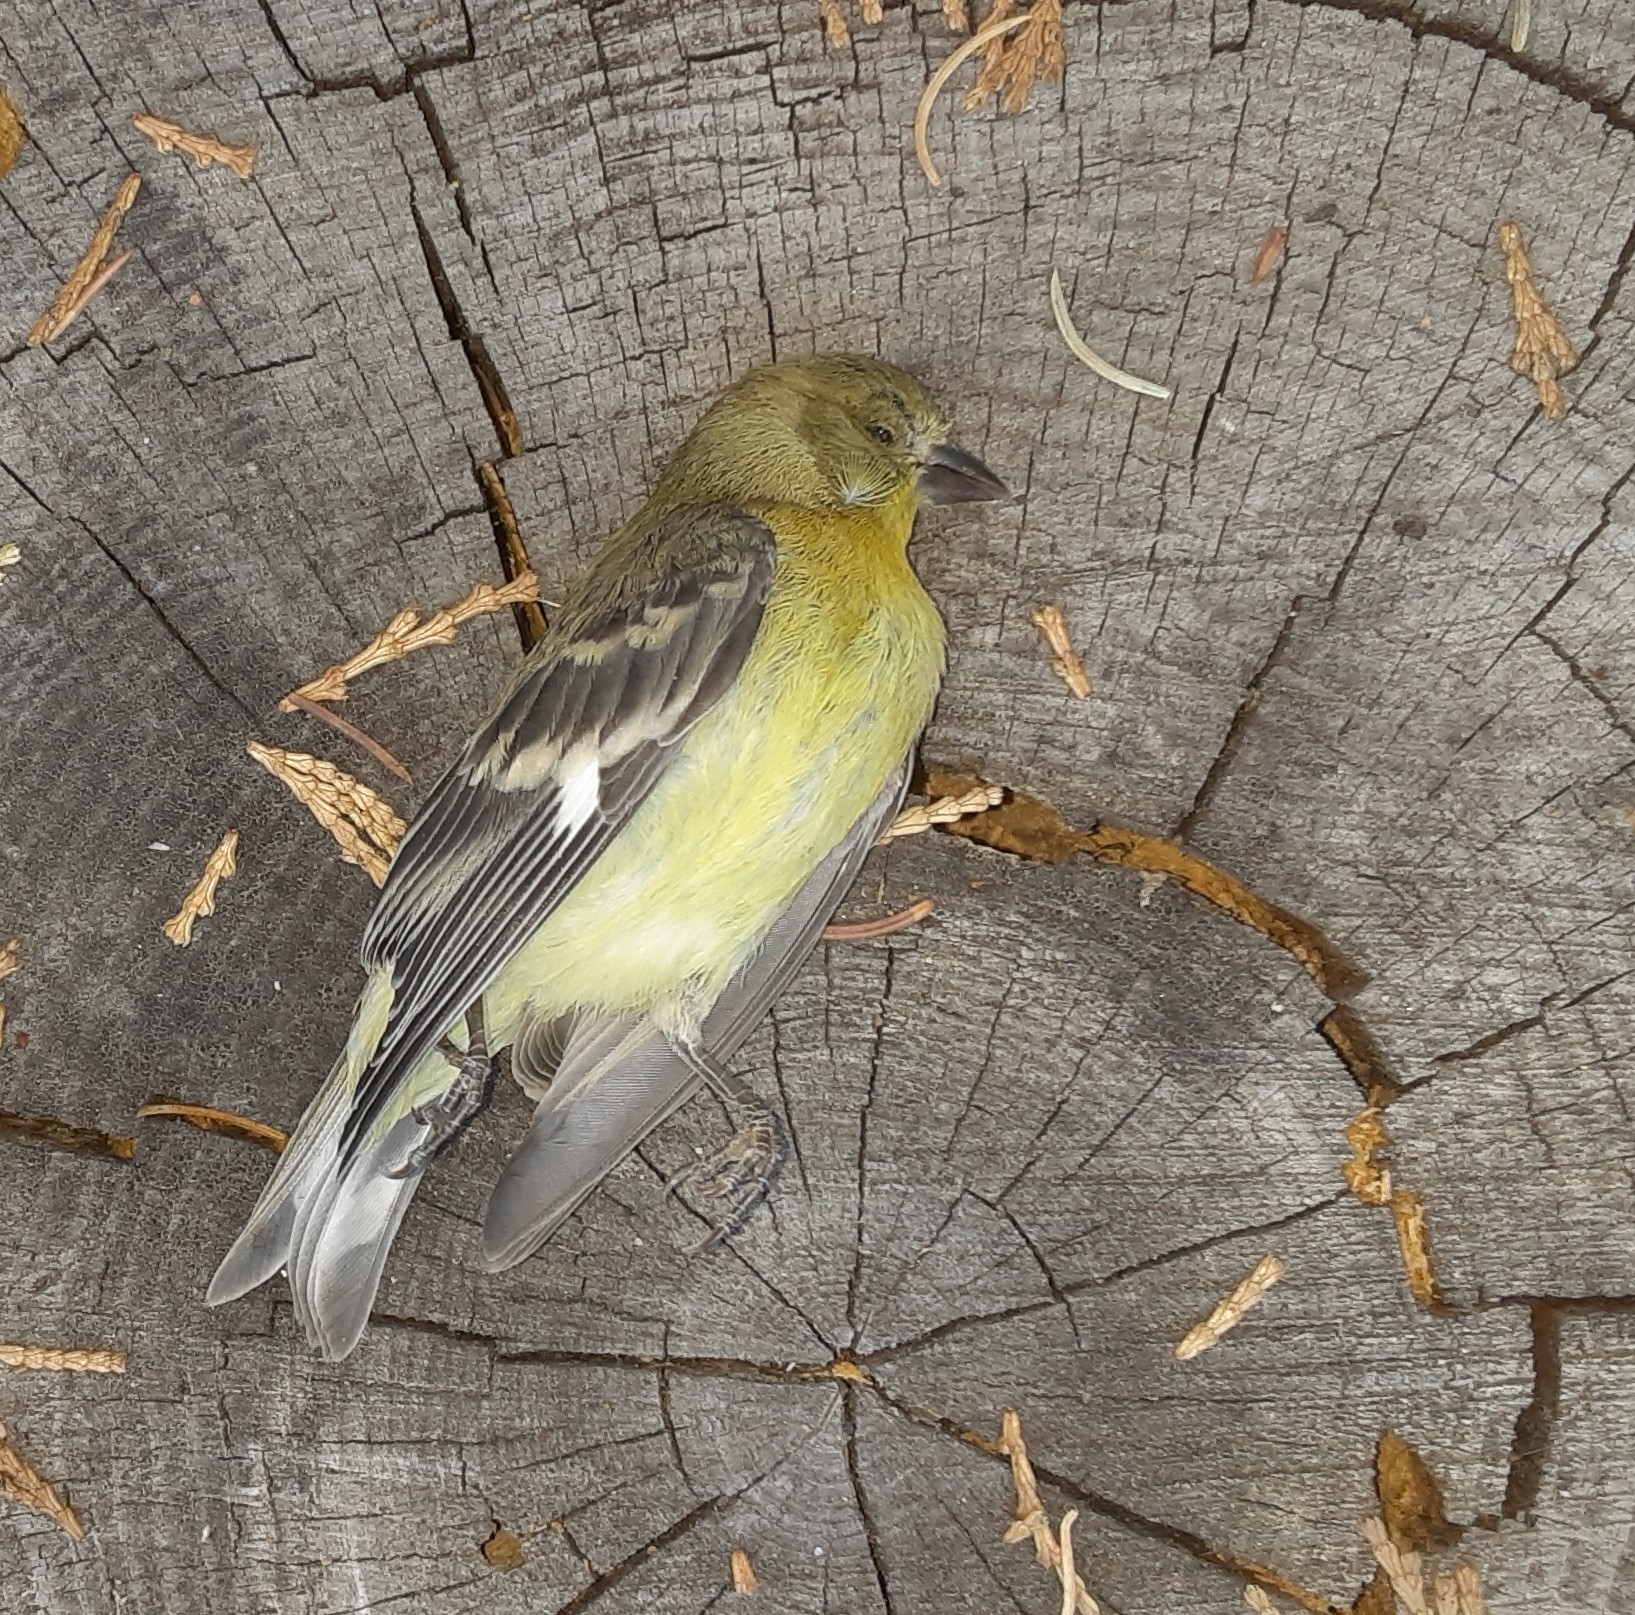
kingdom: Animalia
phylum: Chordata
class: Aves
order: Passeriformes
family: Fringillidae
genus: Spinus
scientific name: Spinus psaltria
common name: Lesser goldfinch
